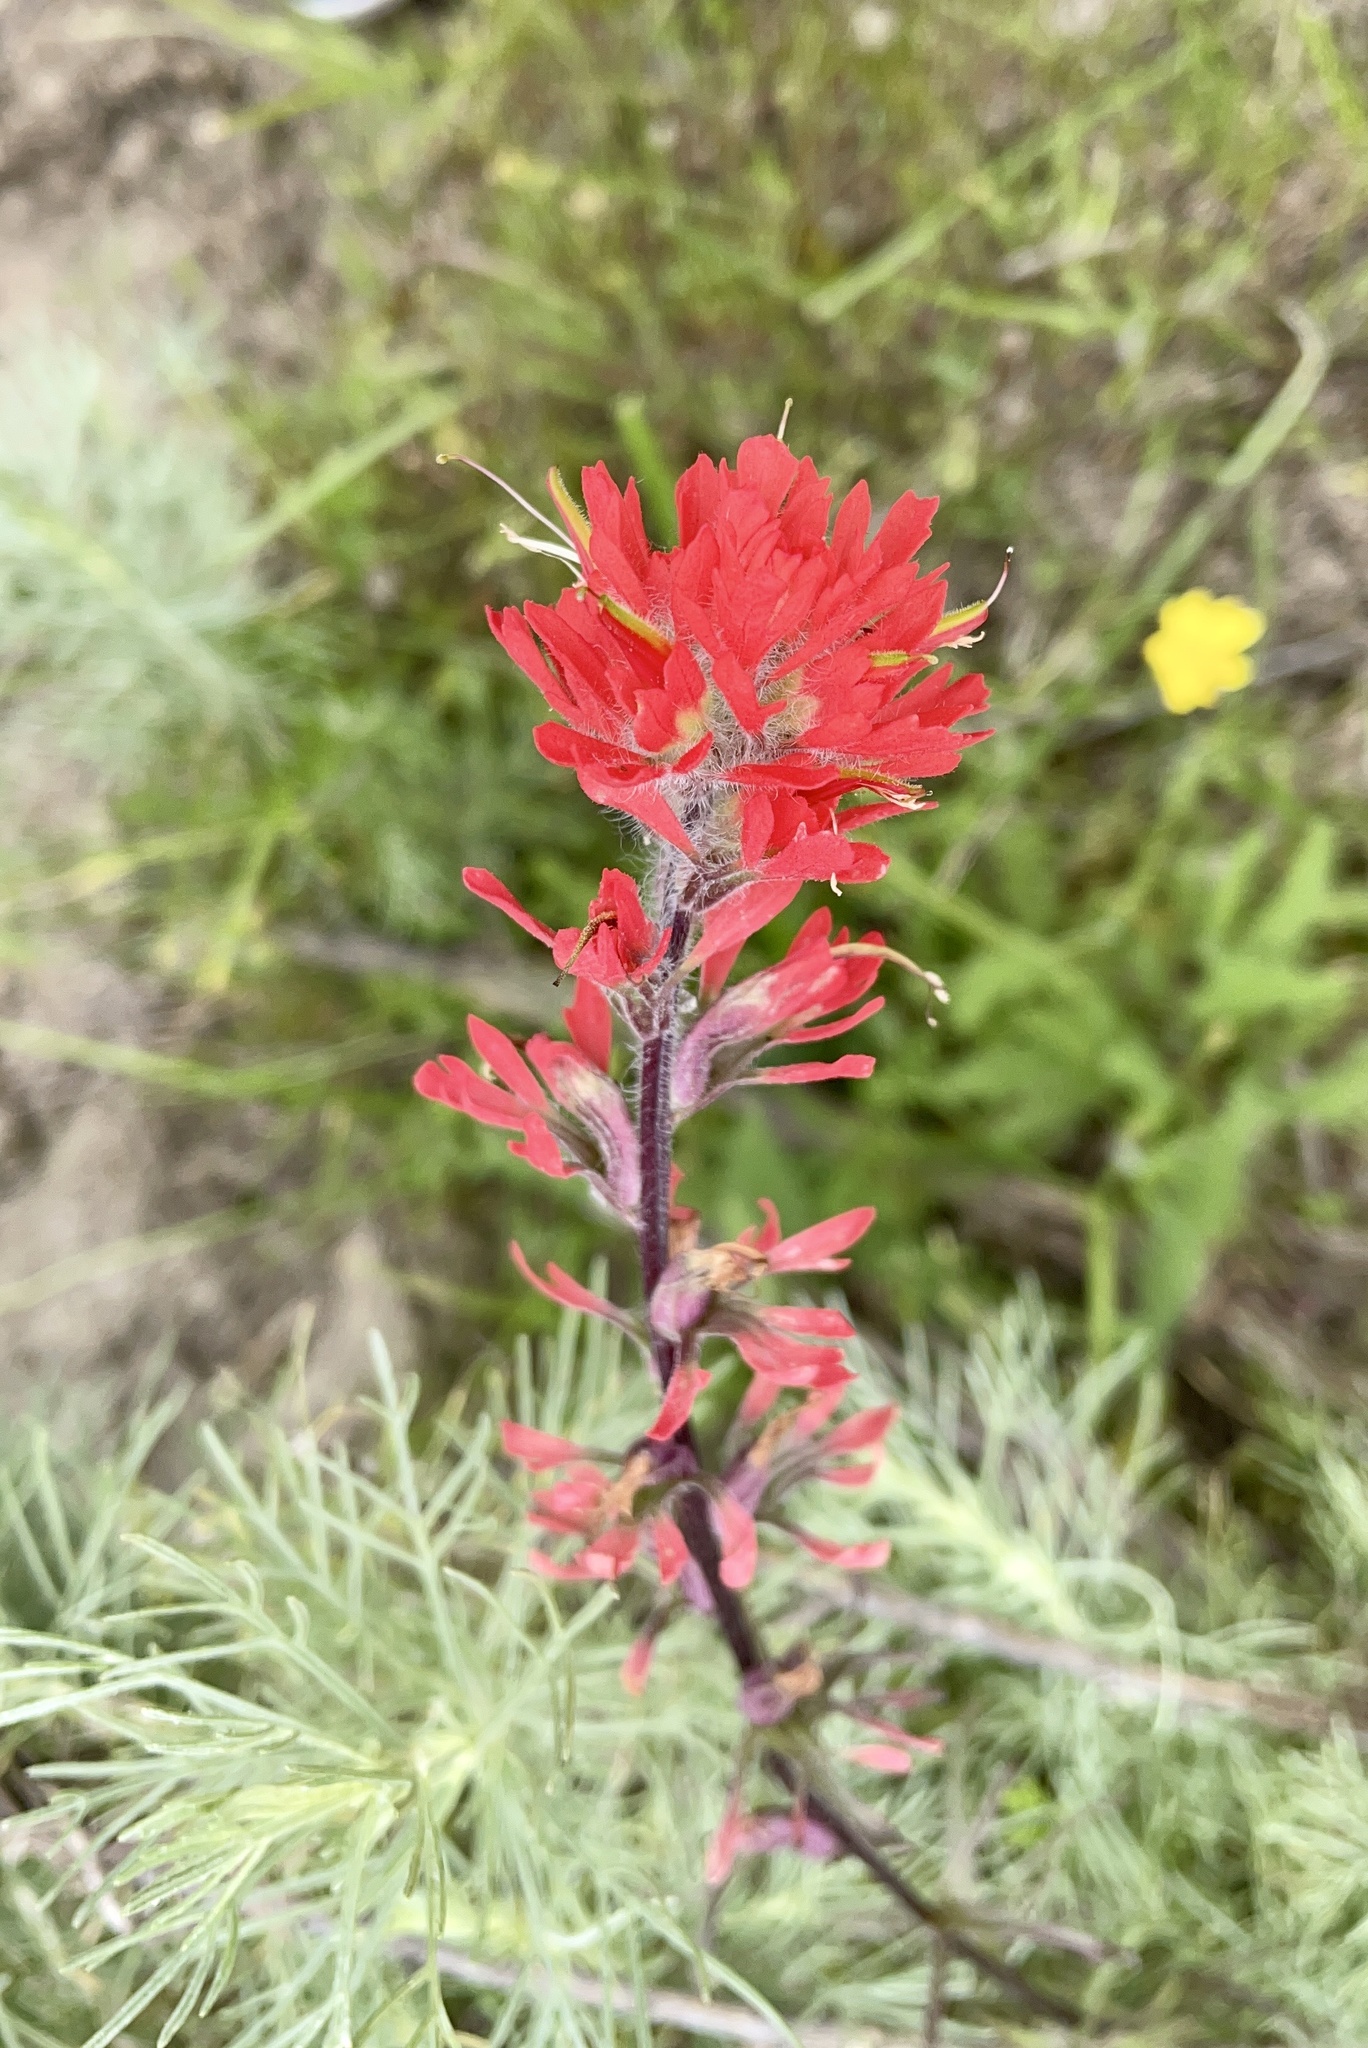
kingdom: Plantae
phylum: Tracheophyta
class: Magnoliopsida
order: Lamiales
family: Orobanchaceae
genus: Castilleja
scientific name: Castilleja affinis
